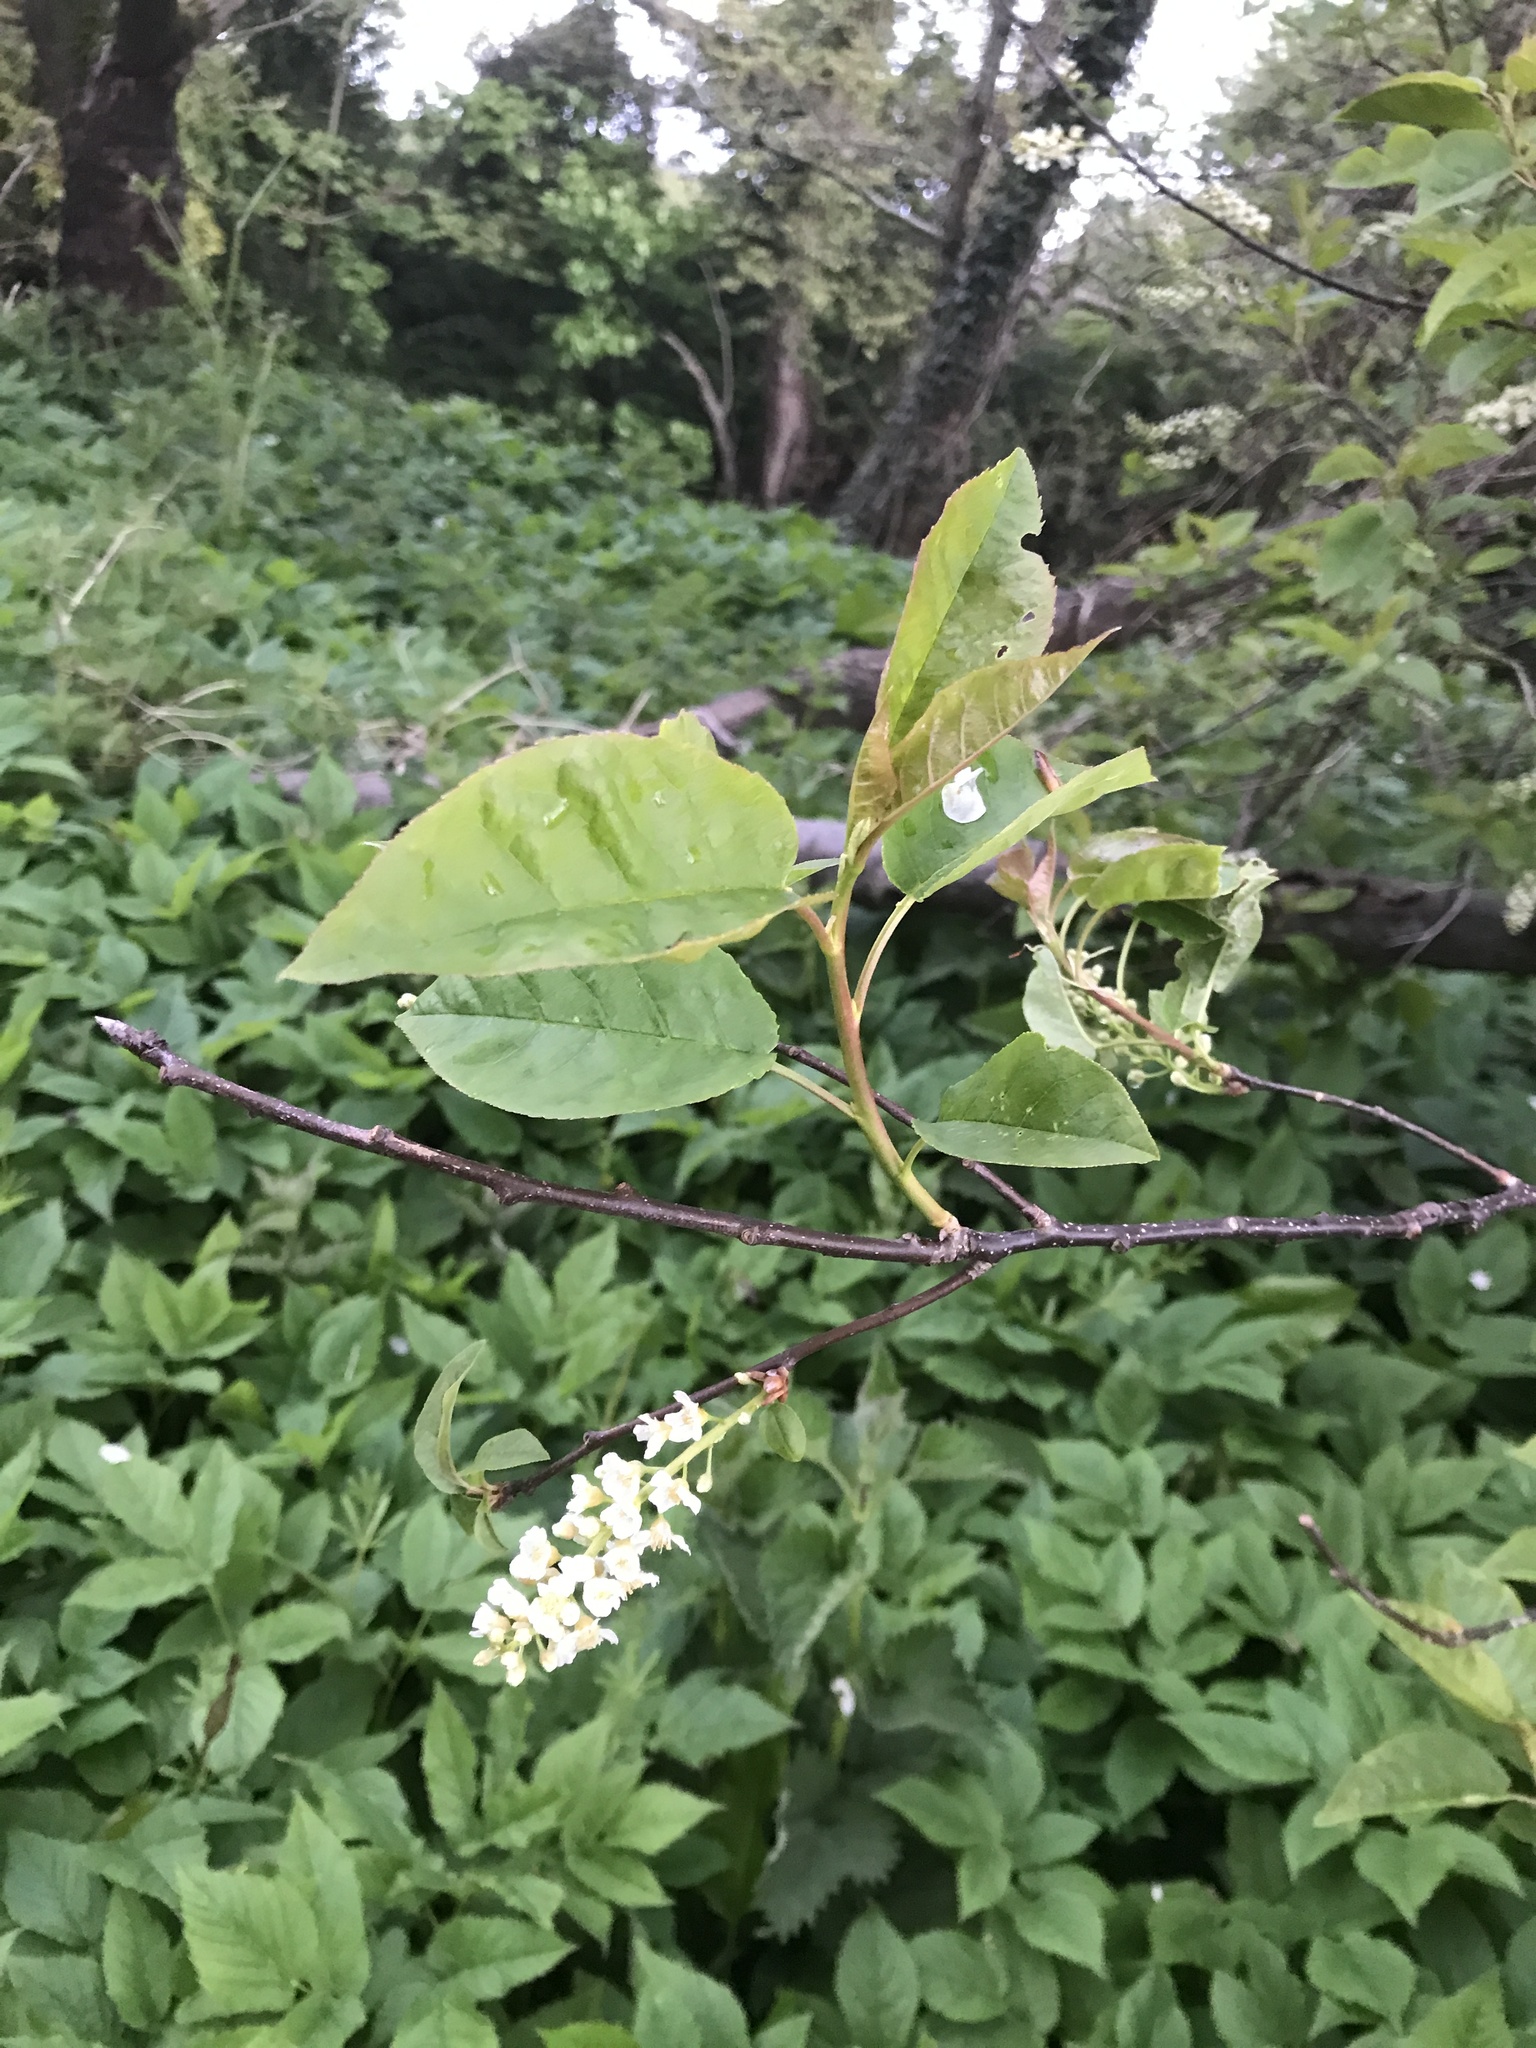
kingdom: Plantae
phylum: Tracheophyta
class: Magnoliopsida
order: Rosales
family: Rosaceae
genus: Prunus
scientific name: Prunus padus
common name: Bird cherry
